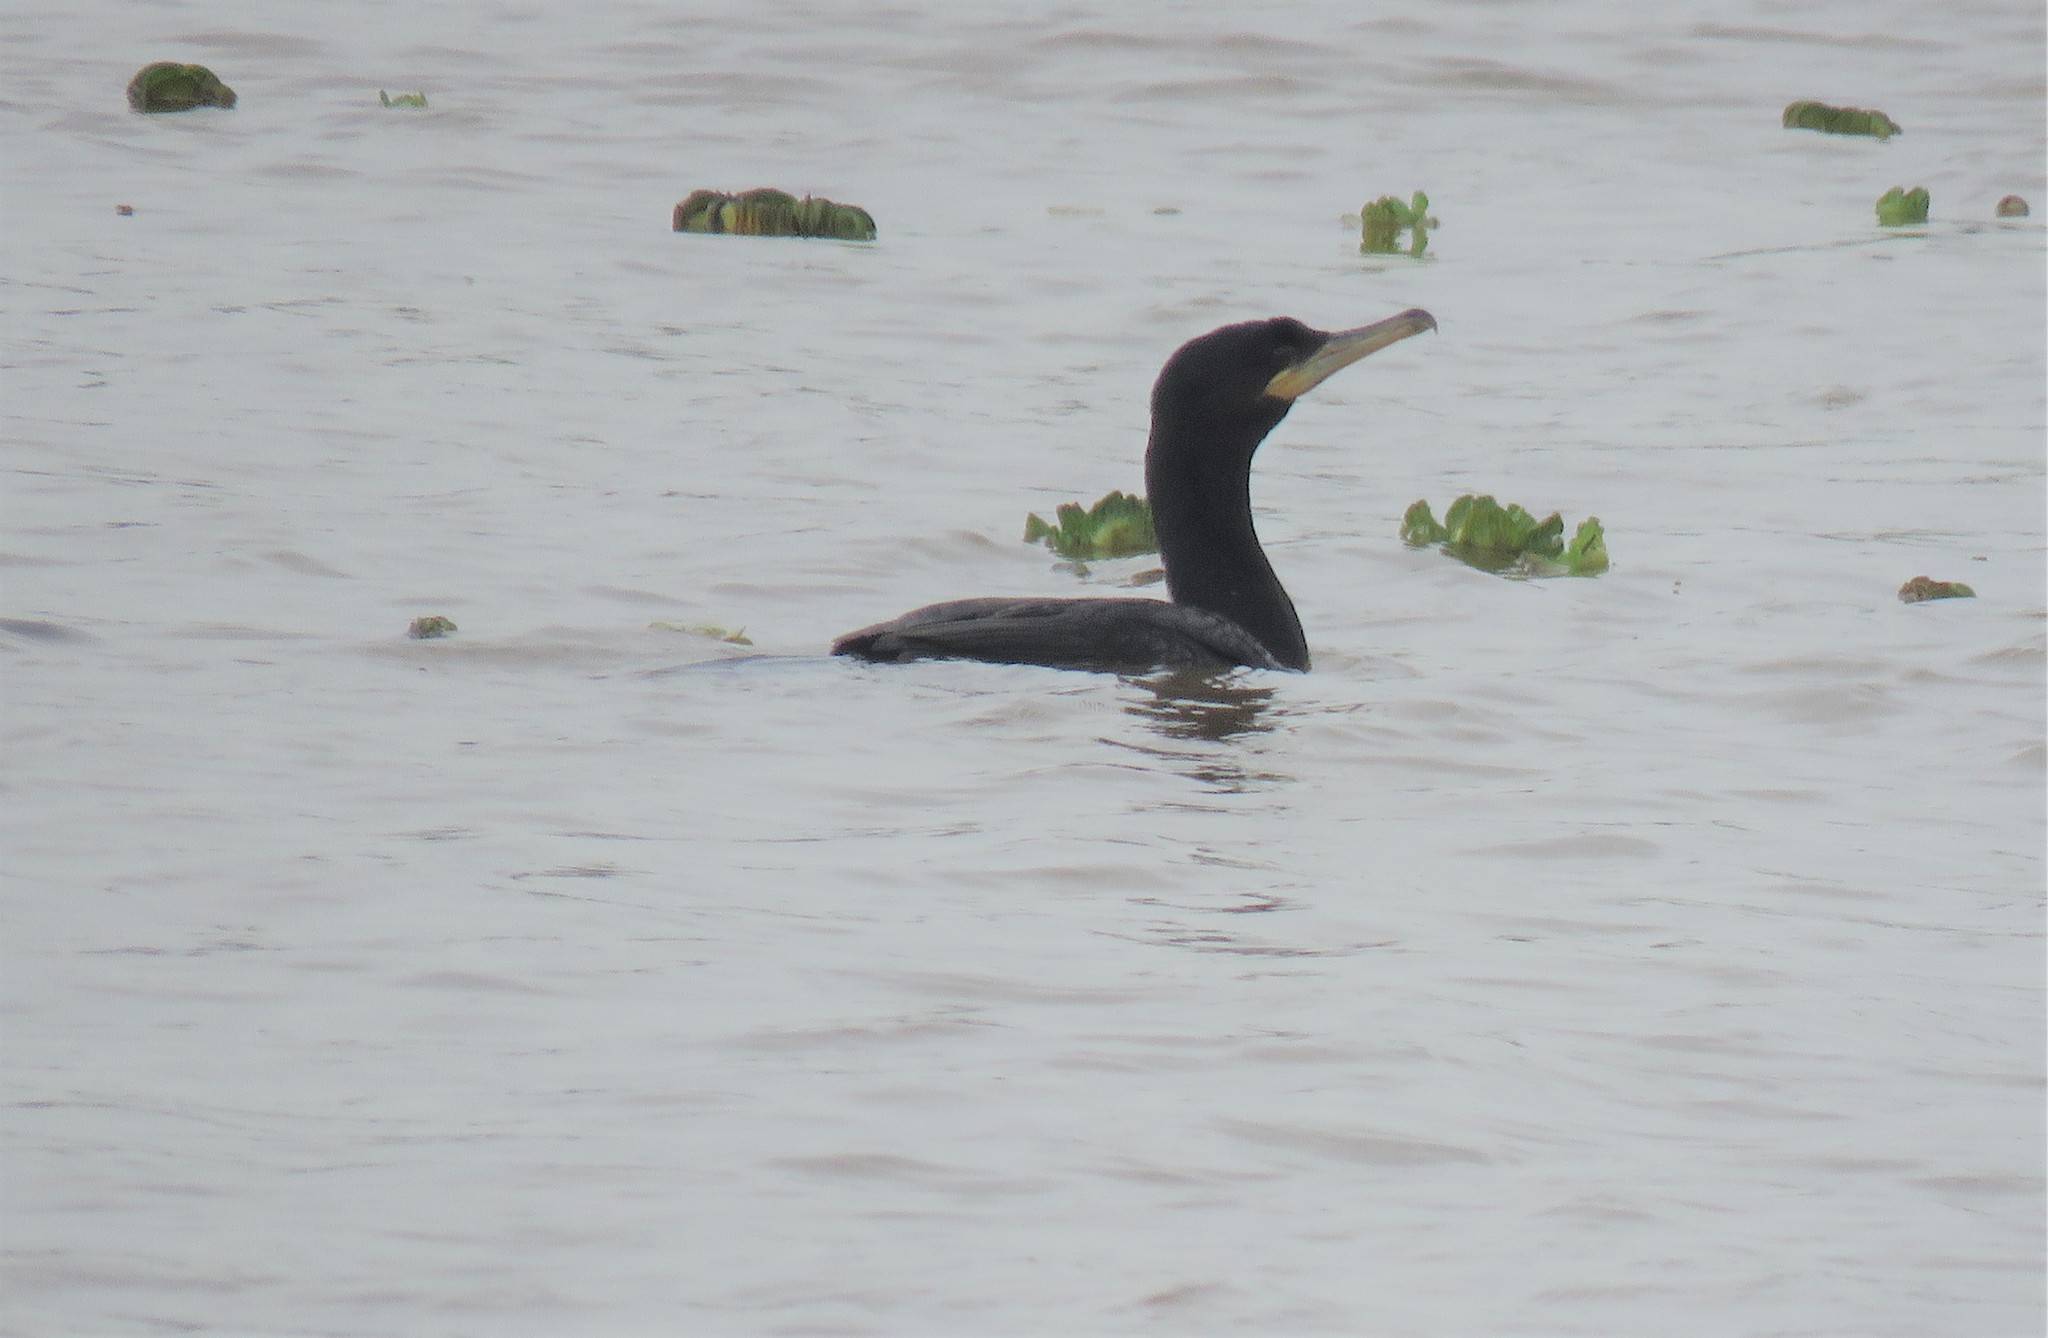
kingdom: Animalia
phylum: Chordata
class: Aves
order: Suliformes
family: Phalacrocoracidae
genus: Phalacrocorax
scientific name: Phalacrocorax brasilianus
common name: Neotropic cormorant
